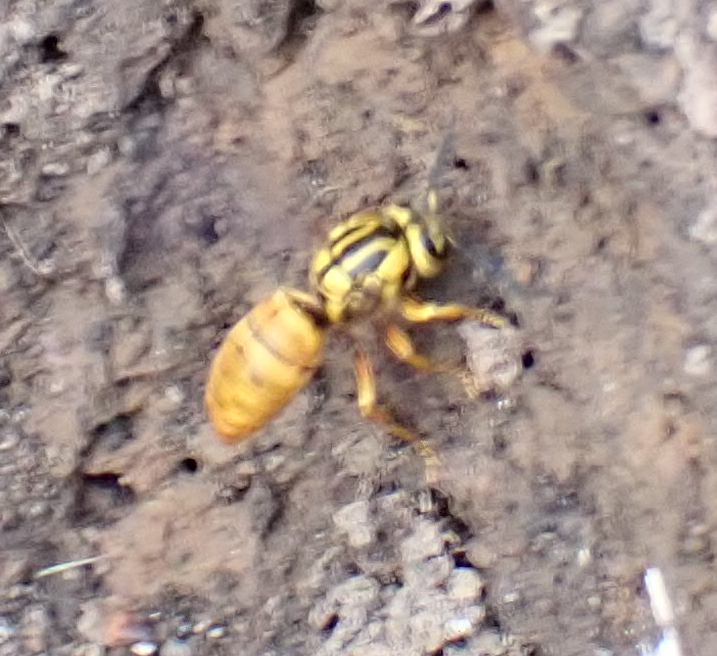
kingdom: Animalia
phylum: Arthropoda
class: Insecta
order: Hymenoptera
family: Vespidae
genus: Vespula
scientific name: Vespula squamosa
